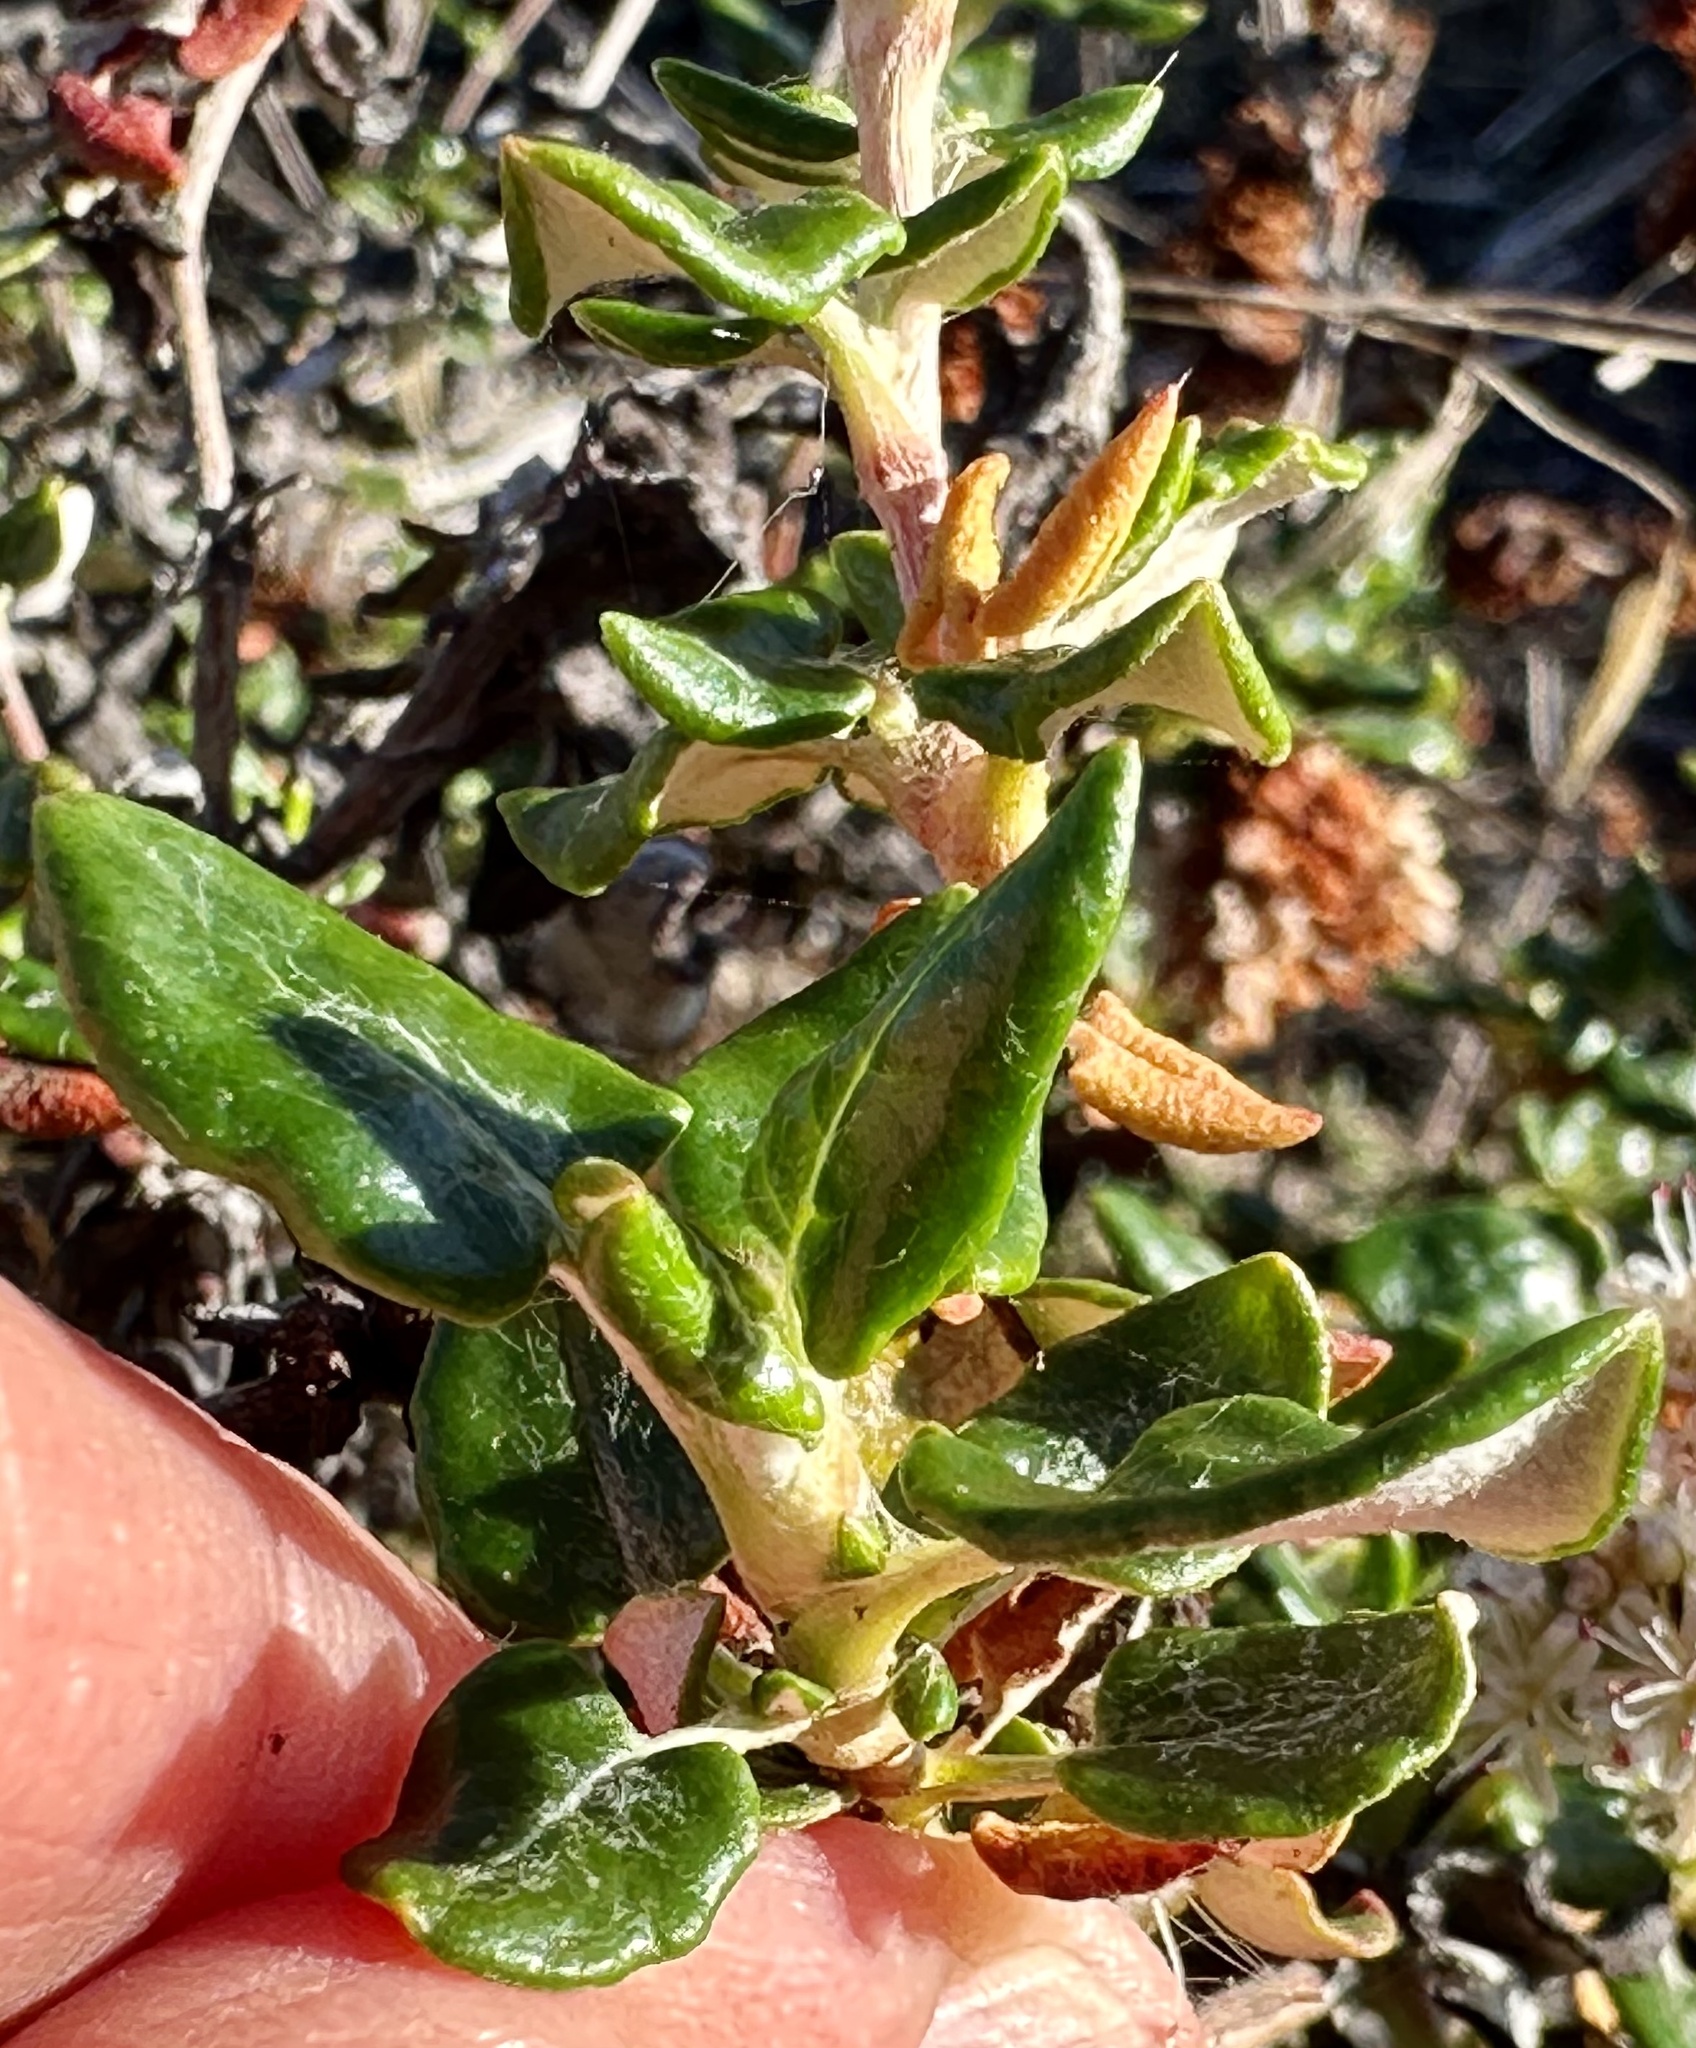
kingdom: Plantae
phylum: Tracheophyta
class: Magnoliopsida
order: Caryophyllales
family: Polygonaceae
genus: Eriogonum
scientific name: Eriogonum parvifolium
